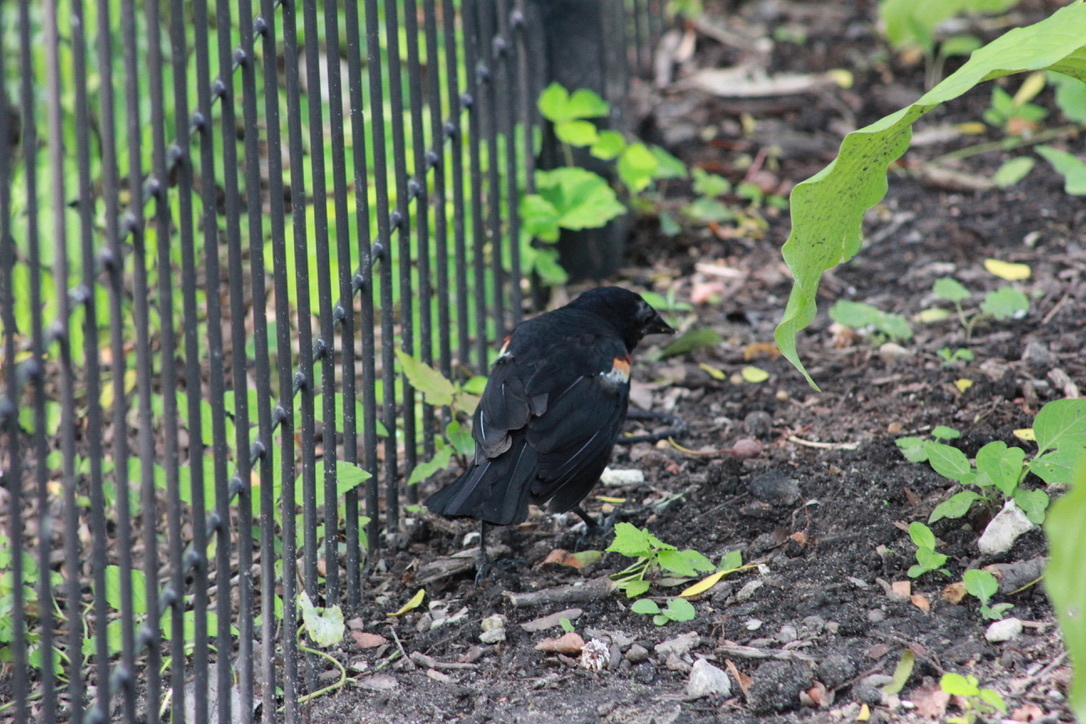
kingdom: Animalia
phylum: Chordata
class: Aves
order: Passeriformes
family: Icteridae
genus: Agelaius
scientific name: Agelaius phoeniceus
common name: Red-winged blackbird
